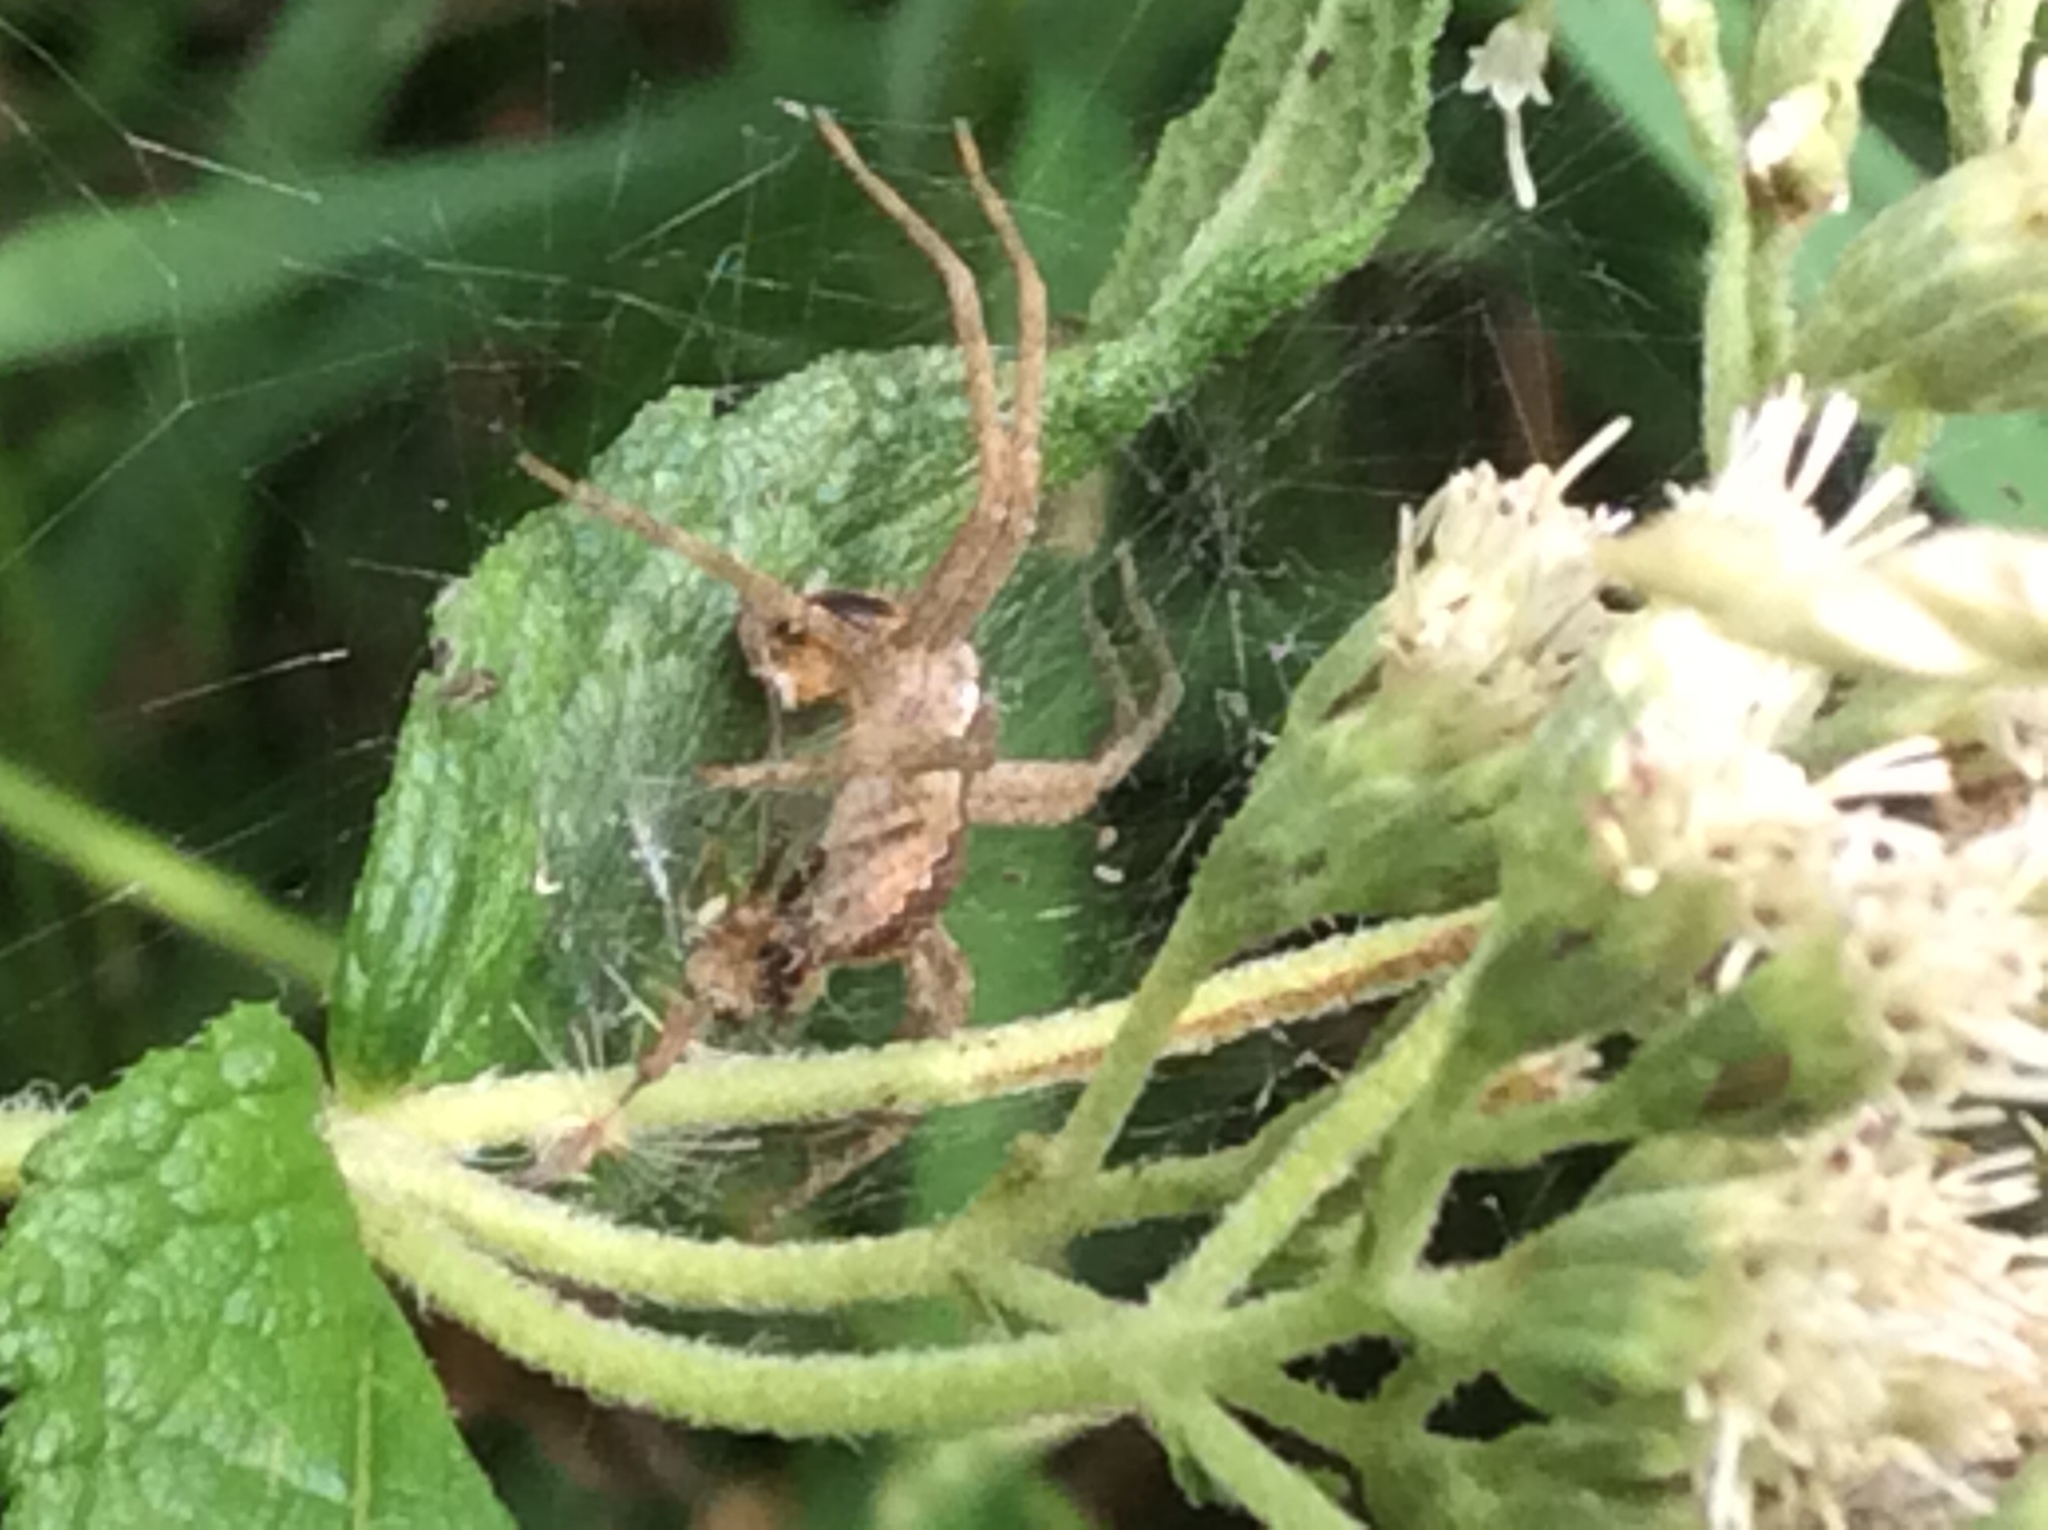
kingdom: Animalia
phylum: Arthropoda
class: Arachnida
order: Araneae
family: Pisauridae
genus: Pisaurina
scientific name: Pisaurina mira
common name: American nursery web spider
